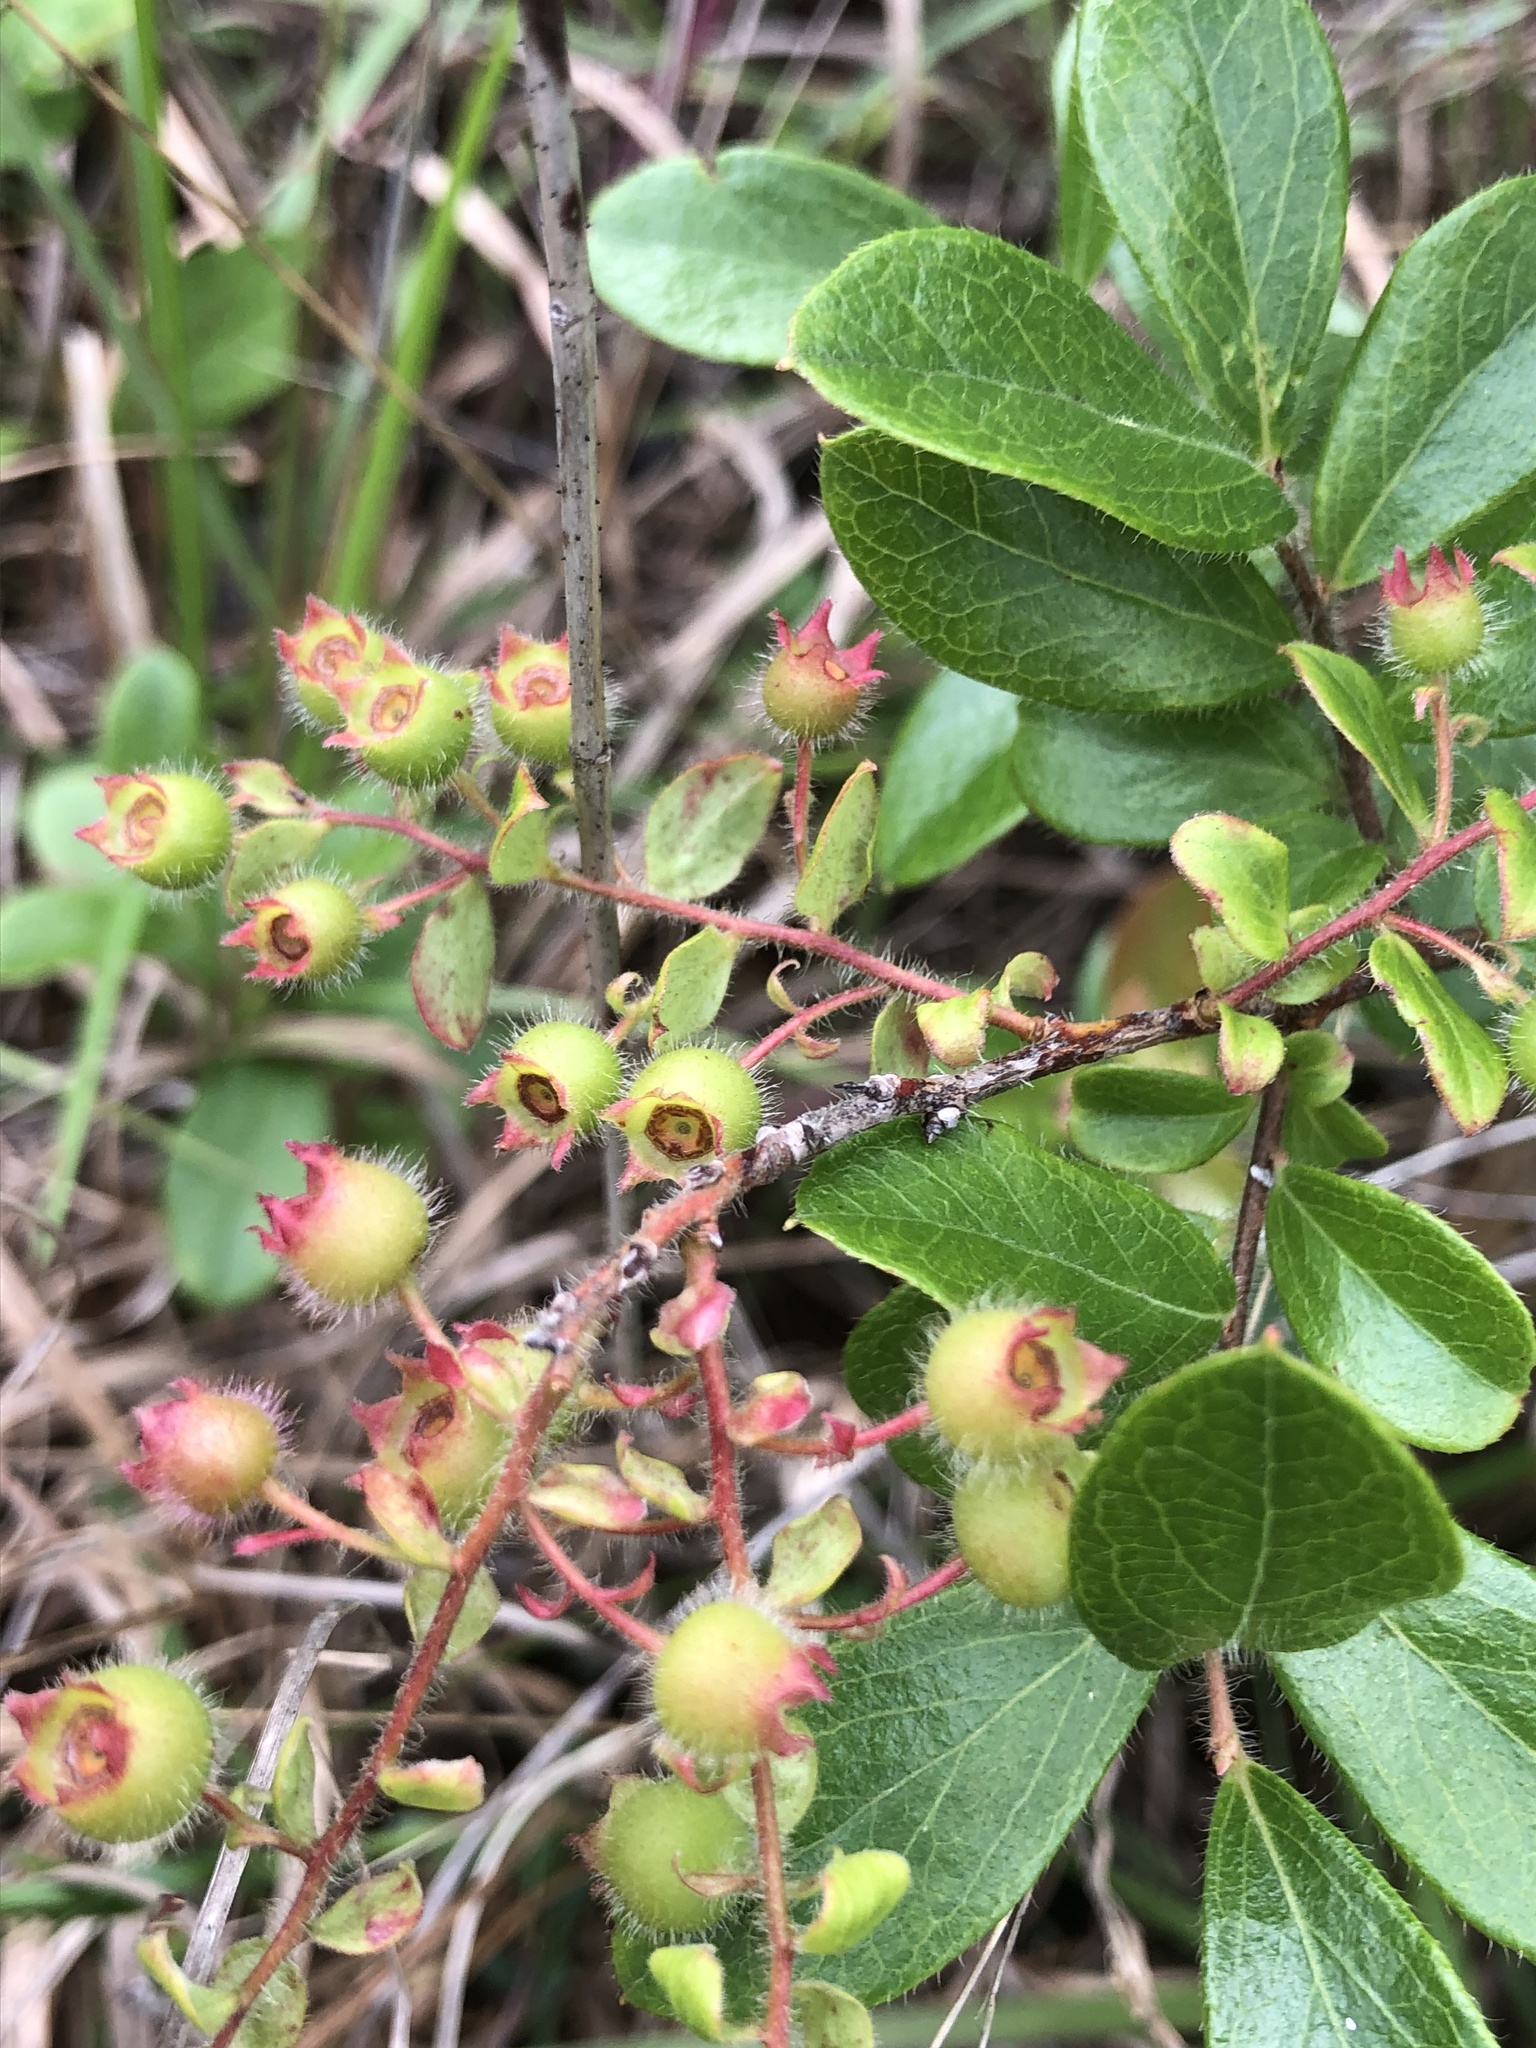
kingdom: Plantae
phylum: Tracheophyta
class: Magnoliopsida
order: Ericales
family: Ericaceae
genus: Gaylussacia
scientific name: Gaylussacia mosieri
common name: Hirsute huckleberry
